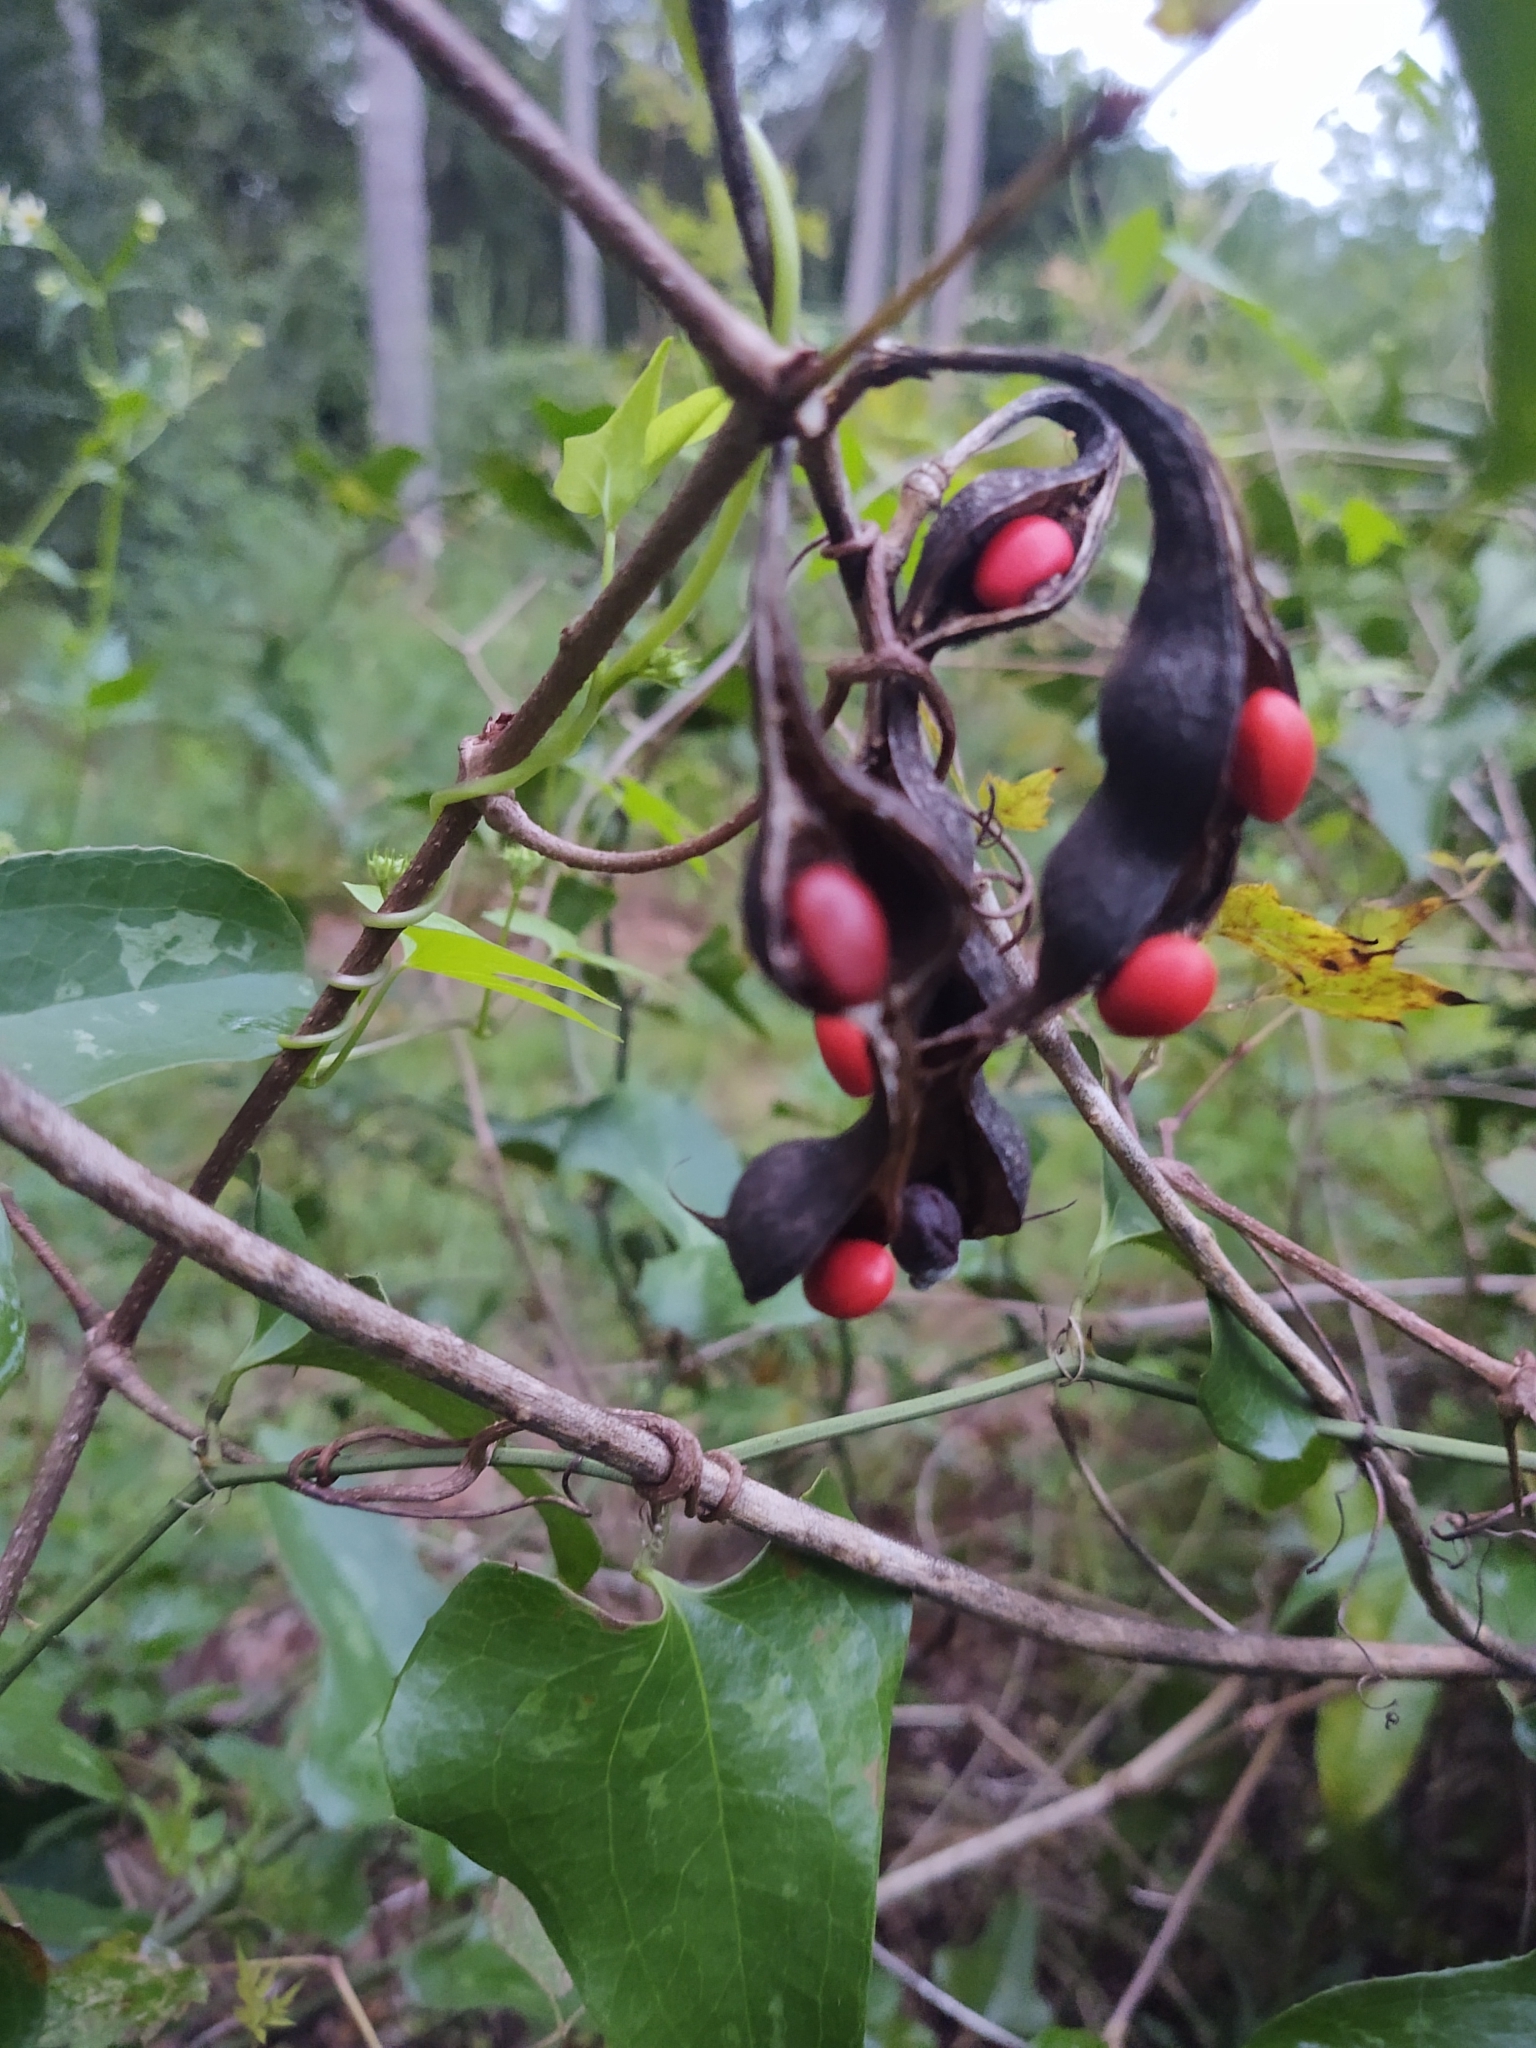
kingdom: Plantae
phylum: Tracheophyta
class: Magnoliopsida
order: Fabales
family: Fabaceae
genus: Erythrina
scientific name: Erythrina herbacea
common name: Coral-bean
